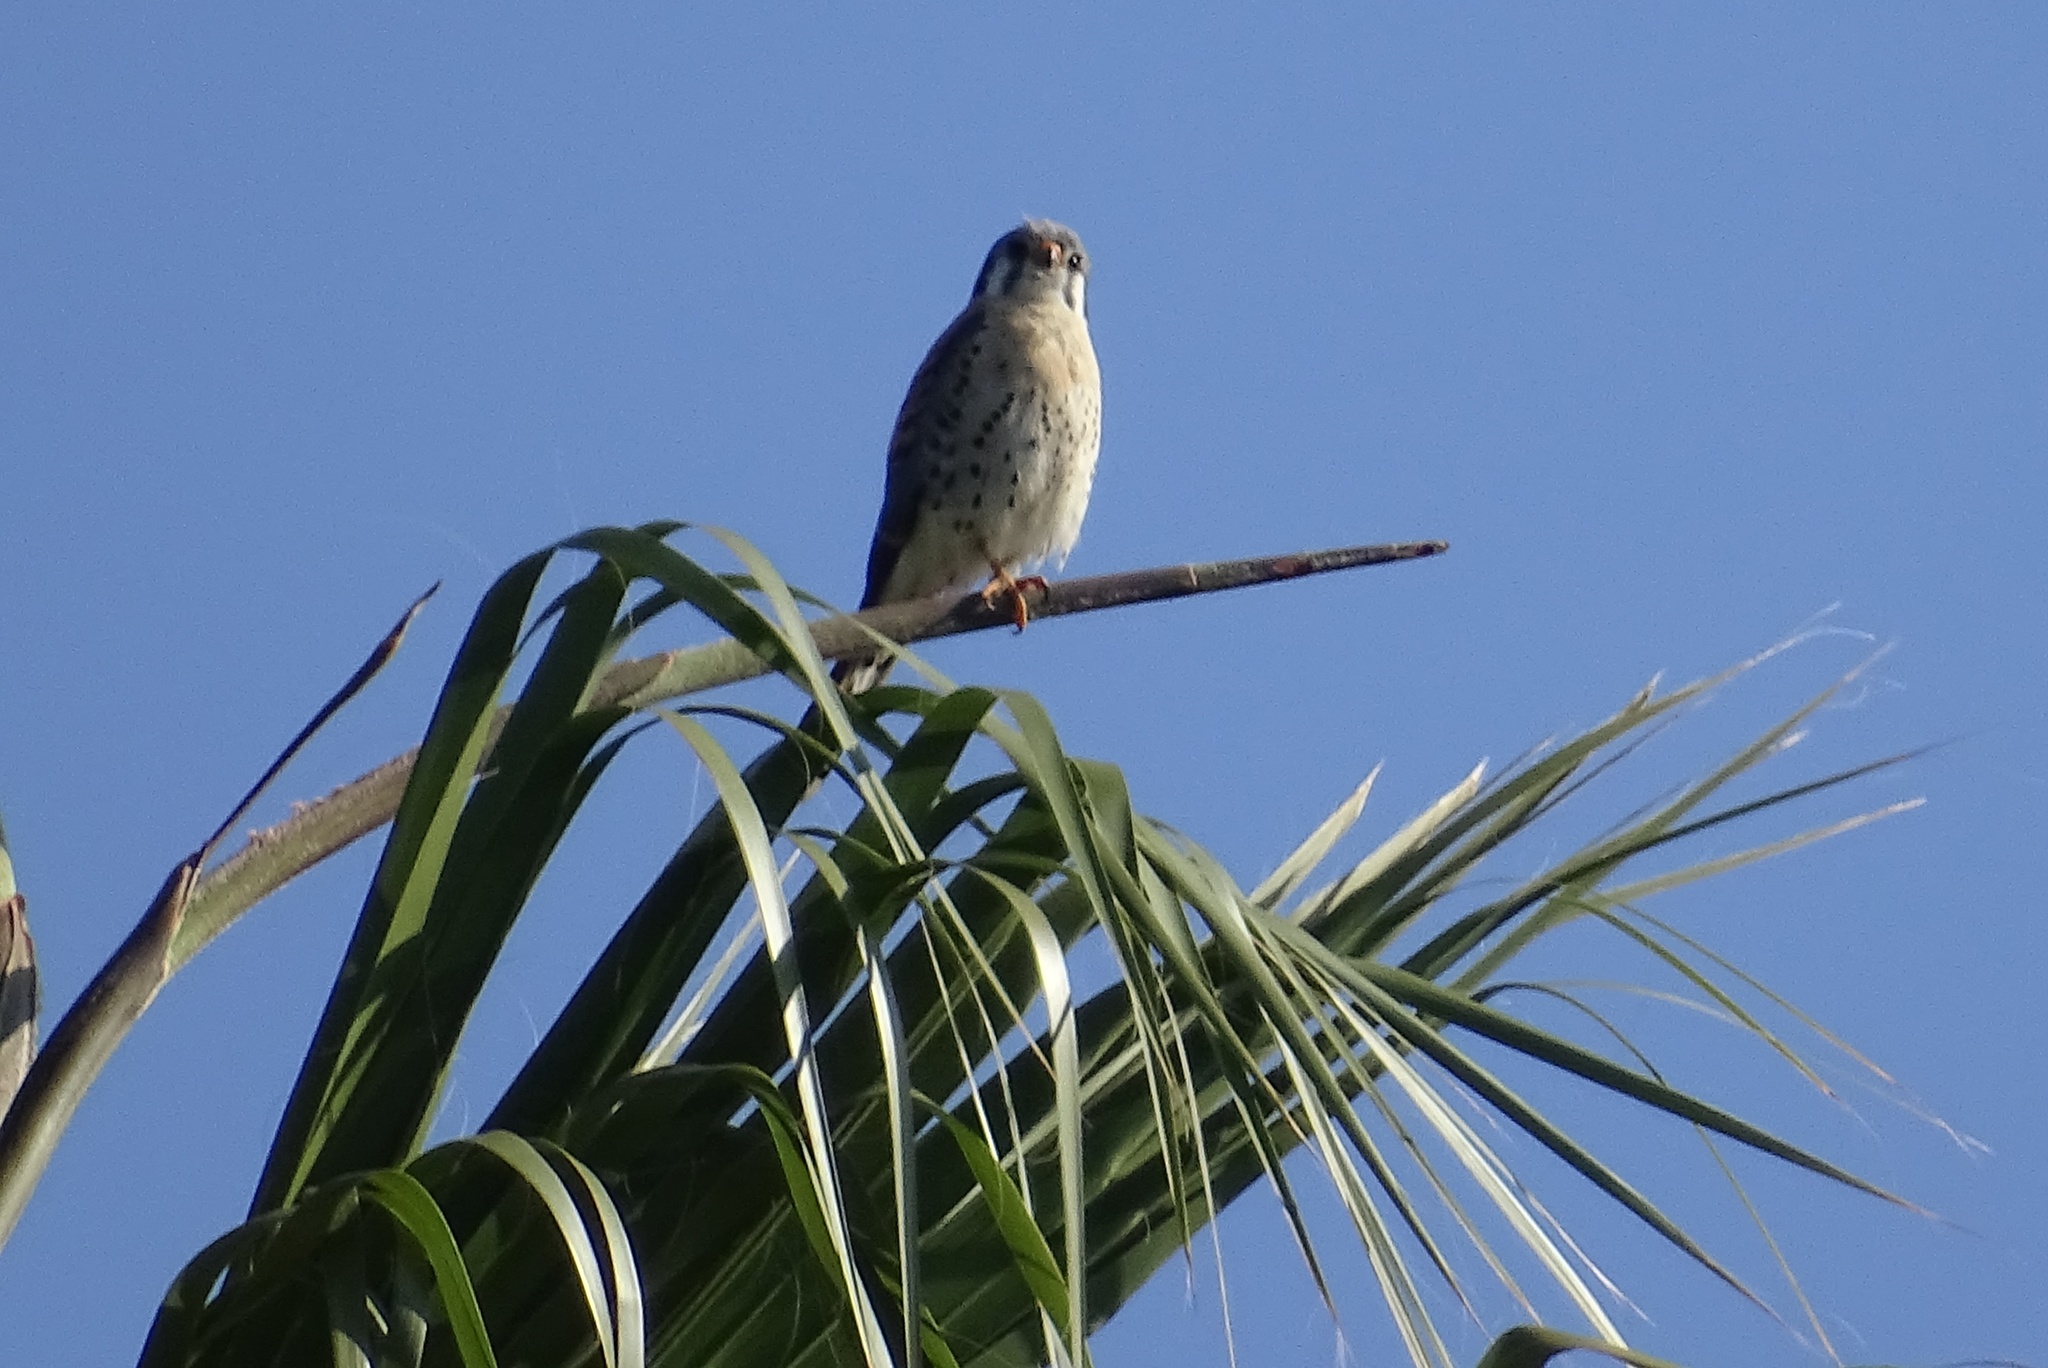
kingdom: Animalia
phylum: Chordata
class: Aves
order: Falconiformes
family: Falconidae
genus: Falco
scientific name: Falco sparverius
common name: American kestrel
